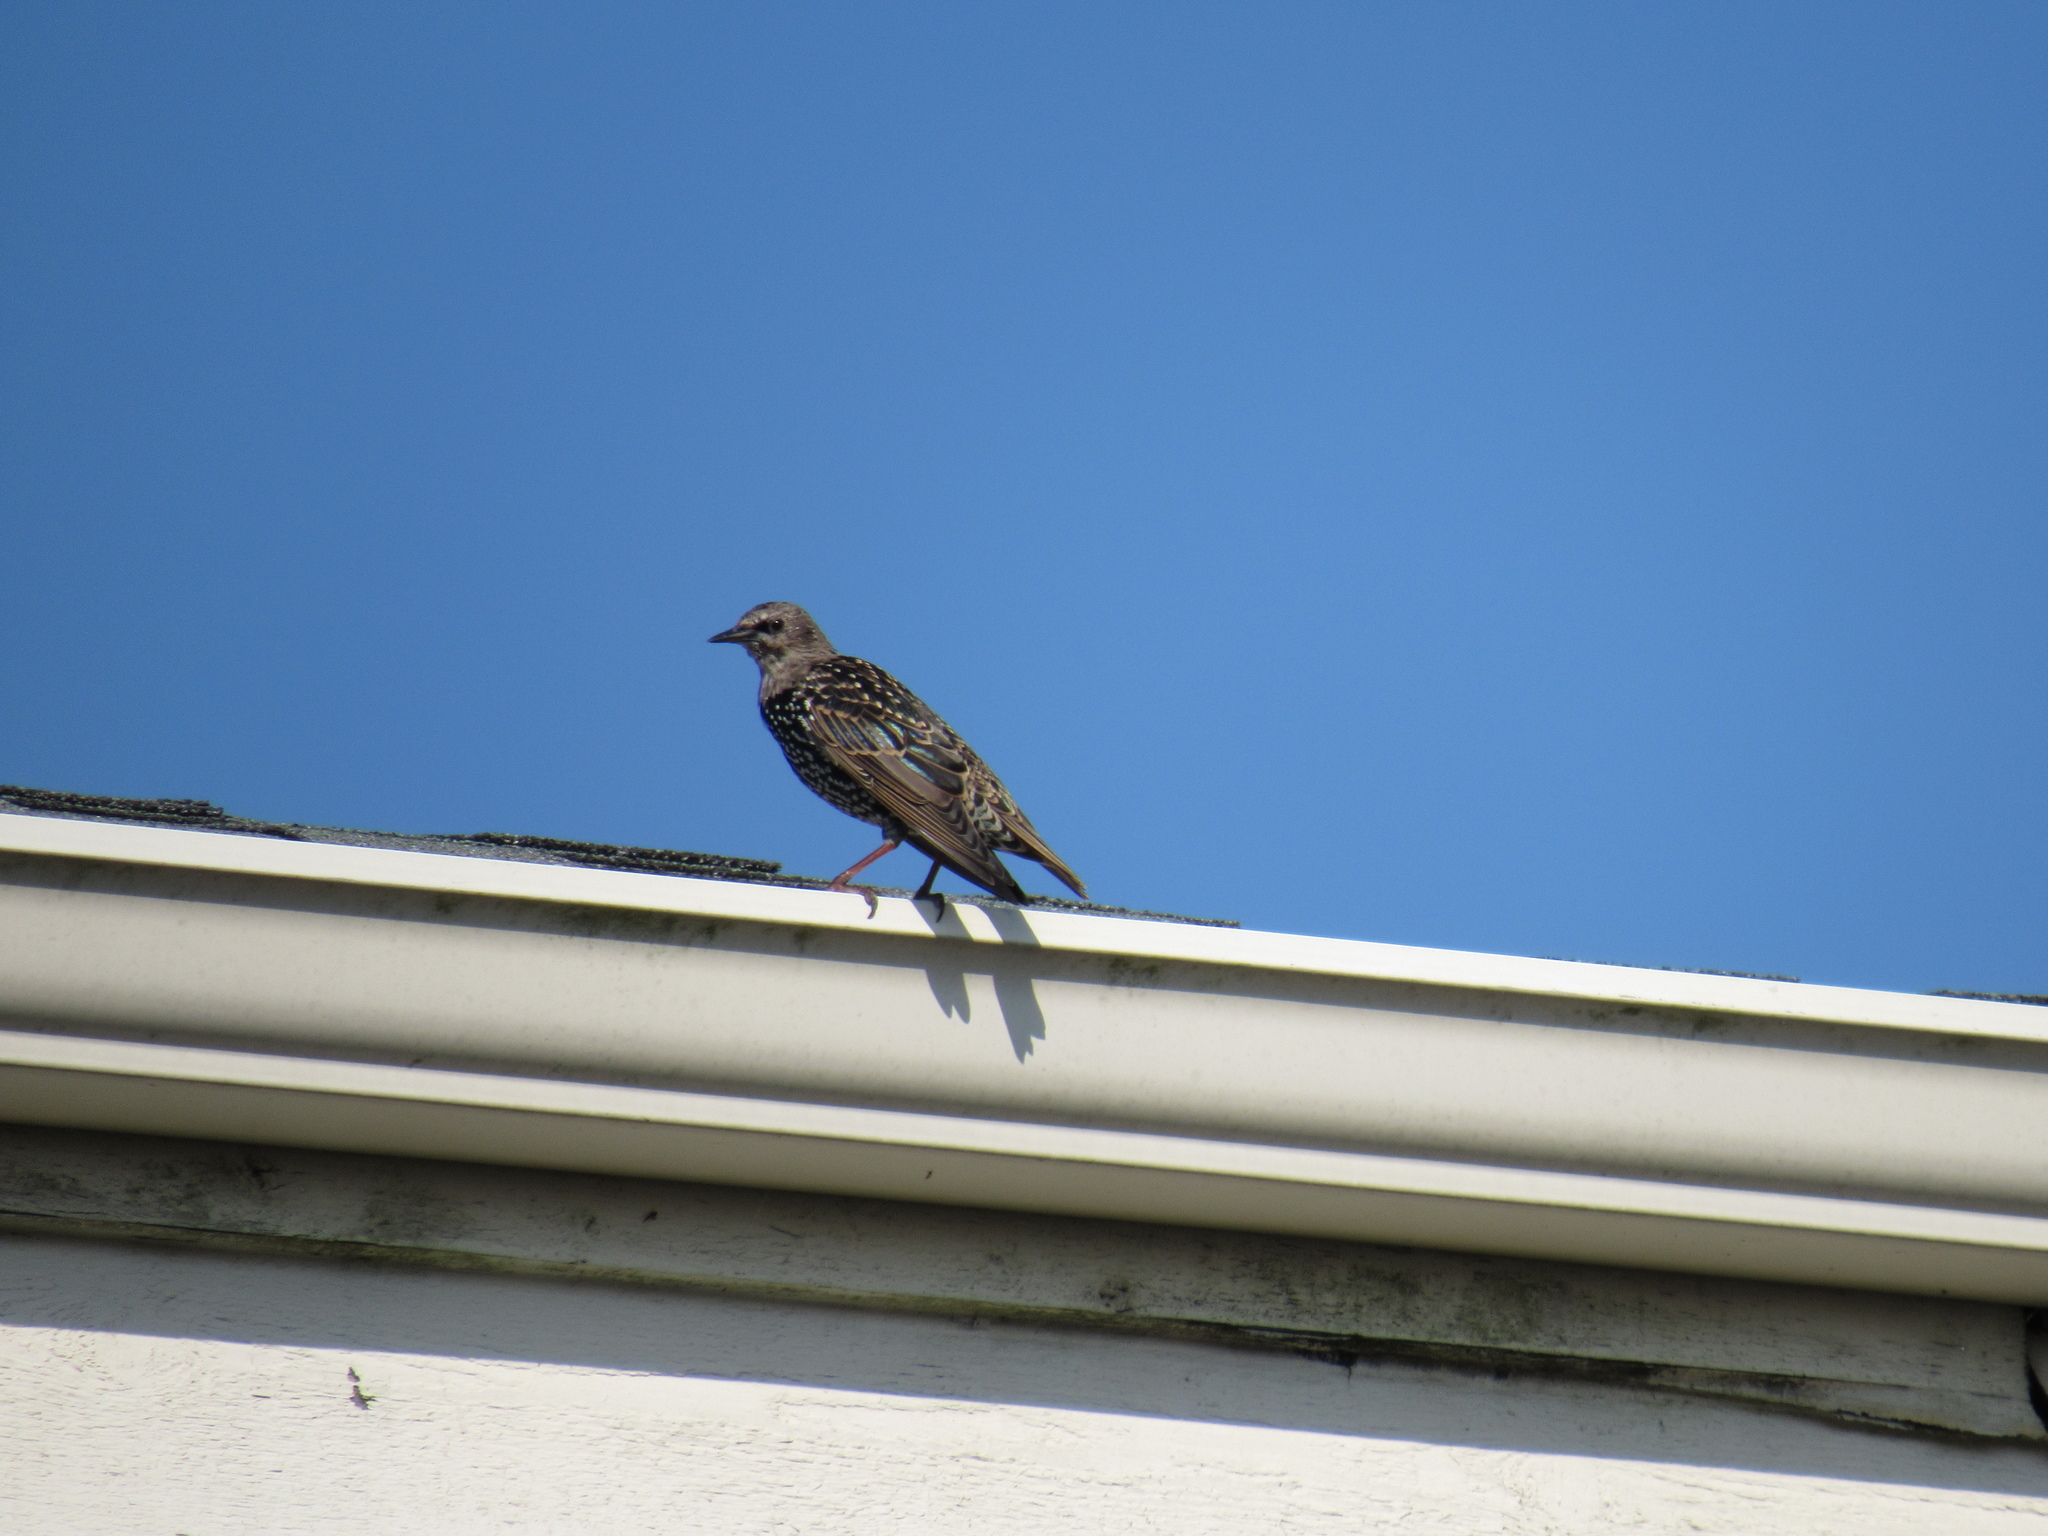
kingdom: Animalia
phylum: Chordata
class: Aves
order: Passeriformes
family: Sturnidae
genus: Sturnus
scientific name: Sturnus vulgaris
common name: Common starling
